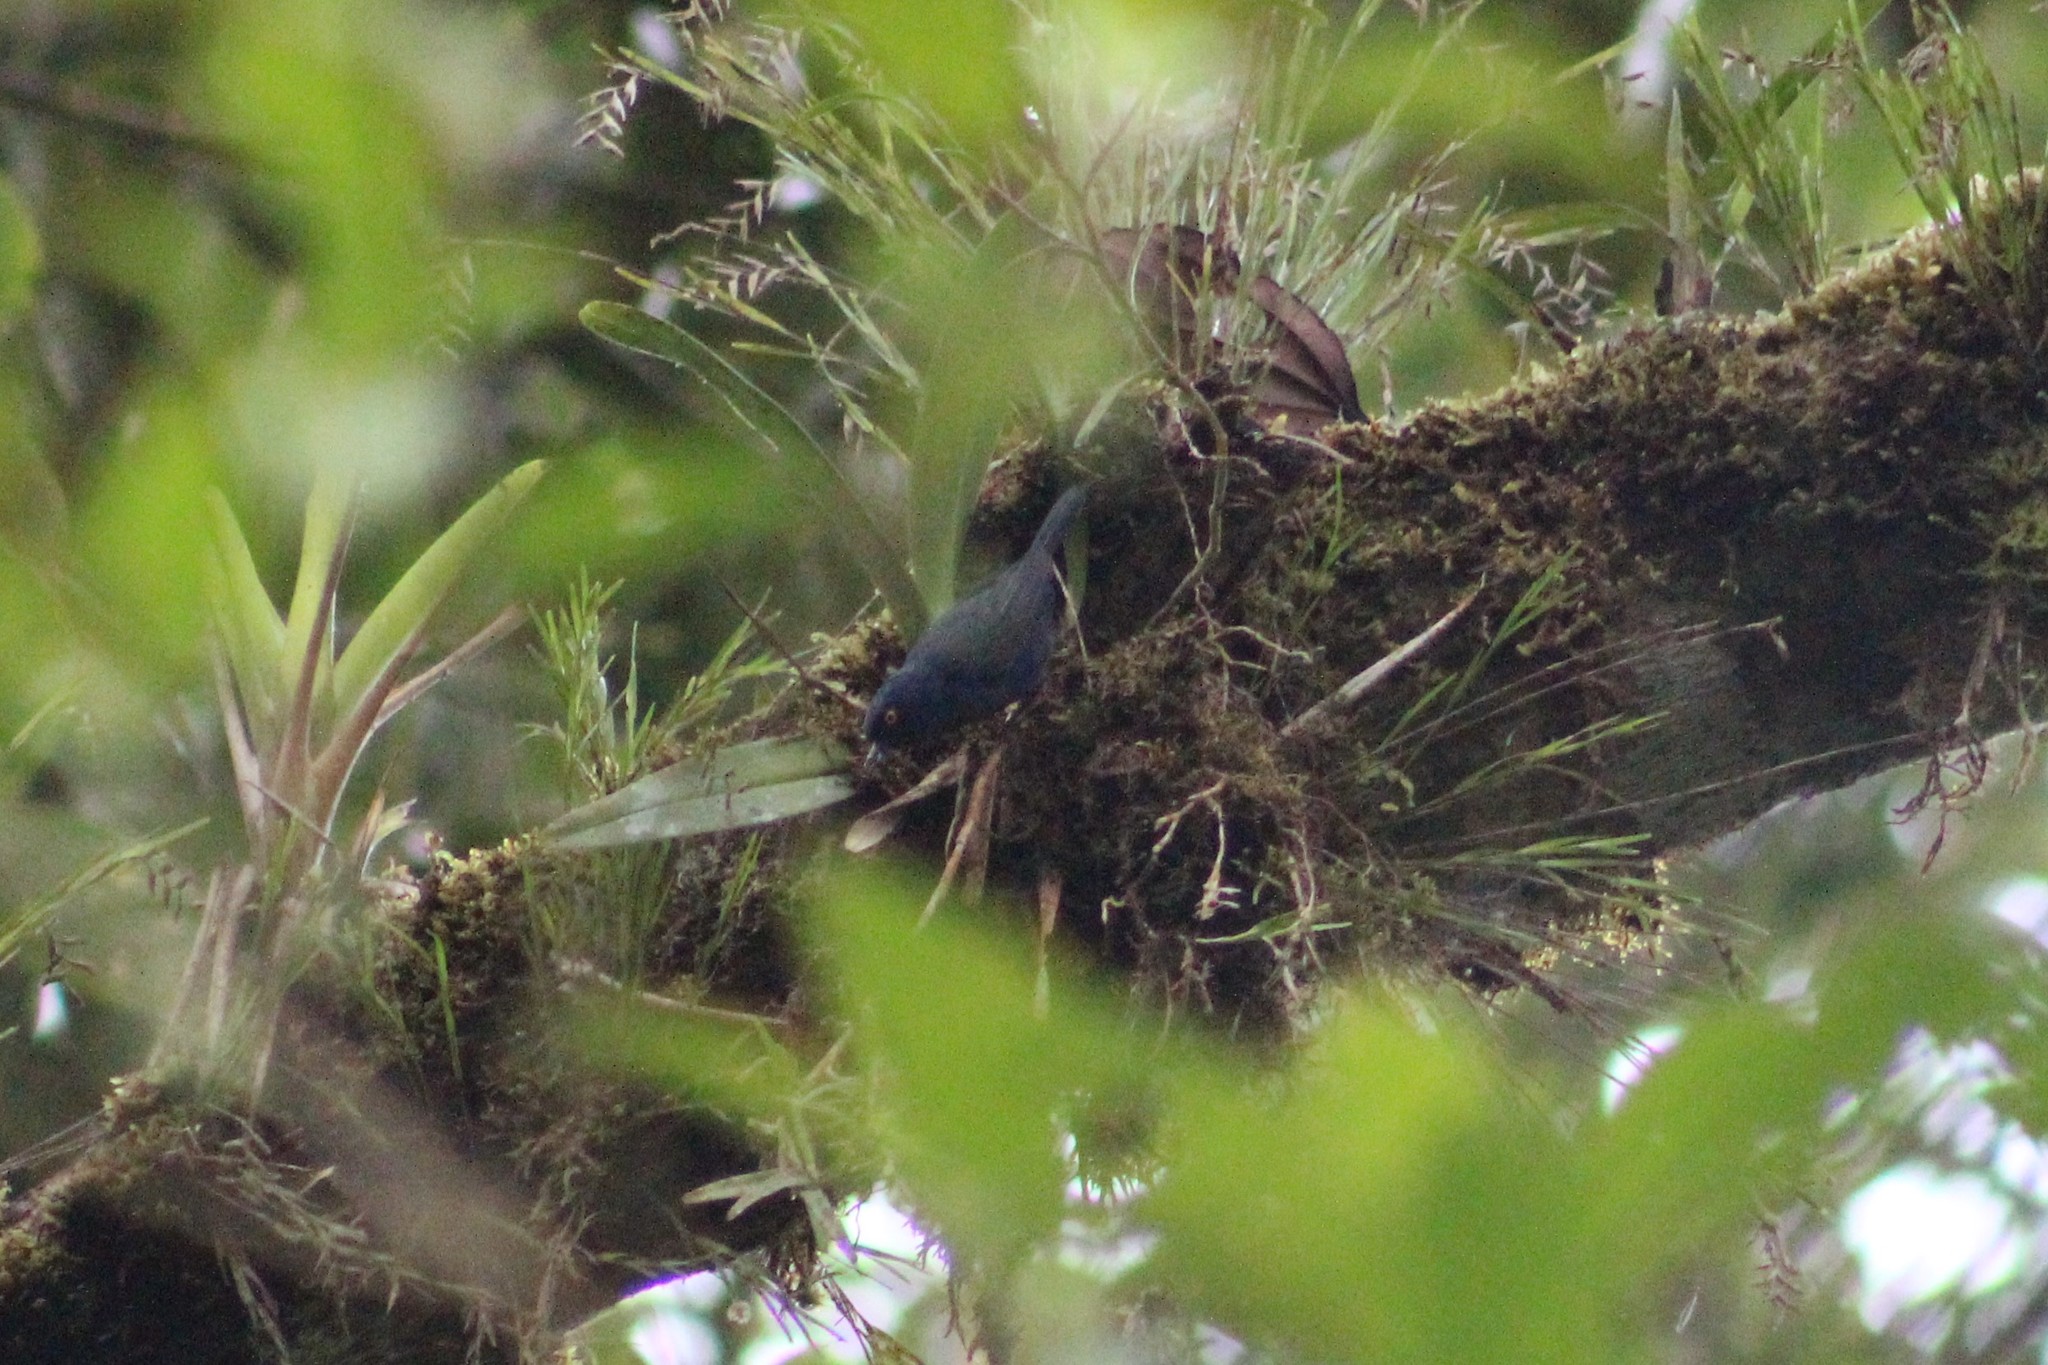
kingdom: Animalia
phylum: Chordata
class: Aves
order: Passeriformes
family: Thraupidae
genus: Diglossa
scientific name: Diglossa glauca
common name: Deep-blue flowerpiercer
